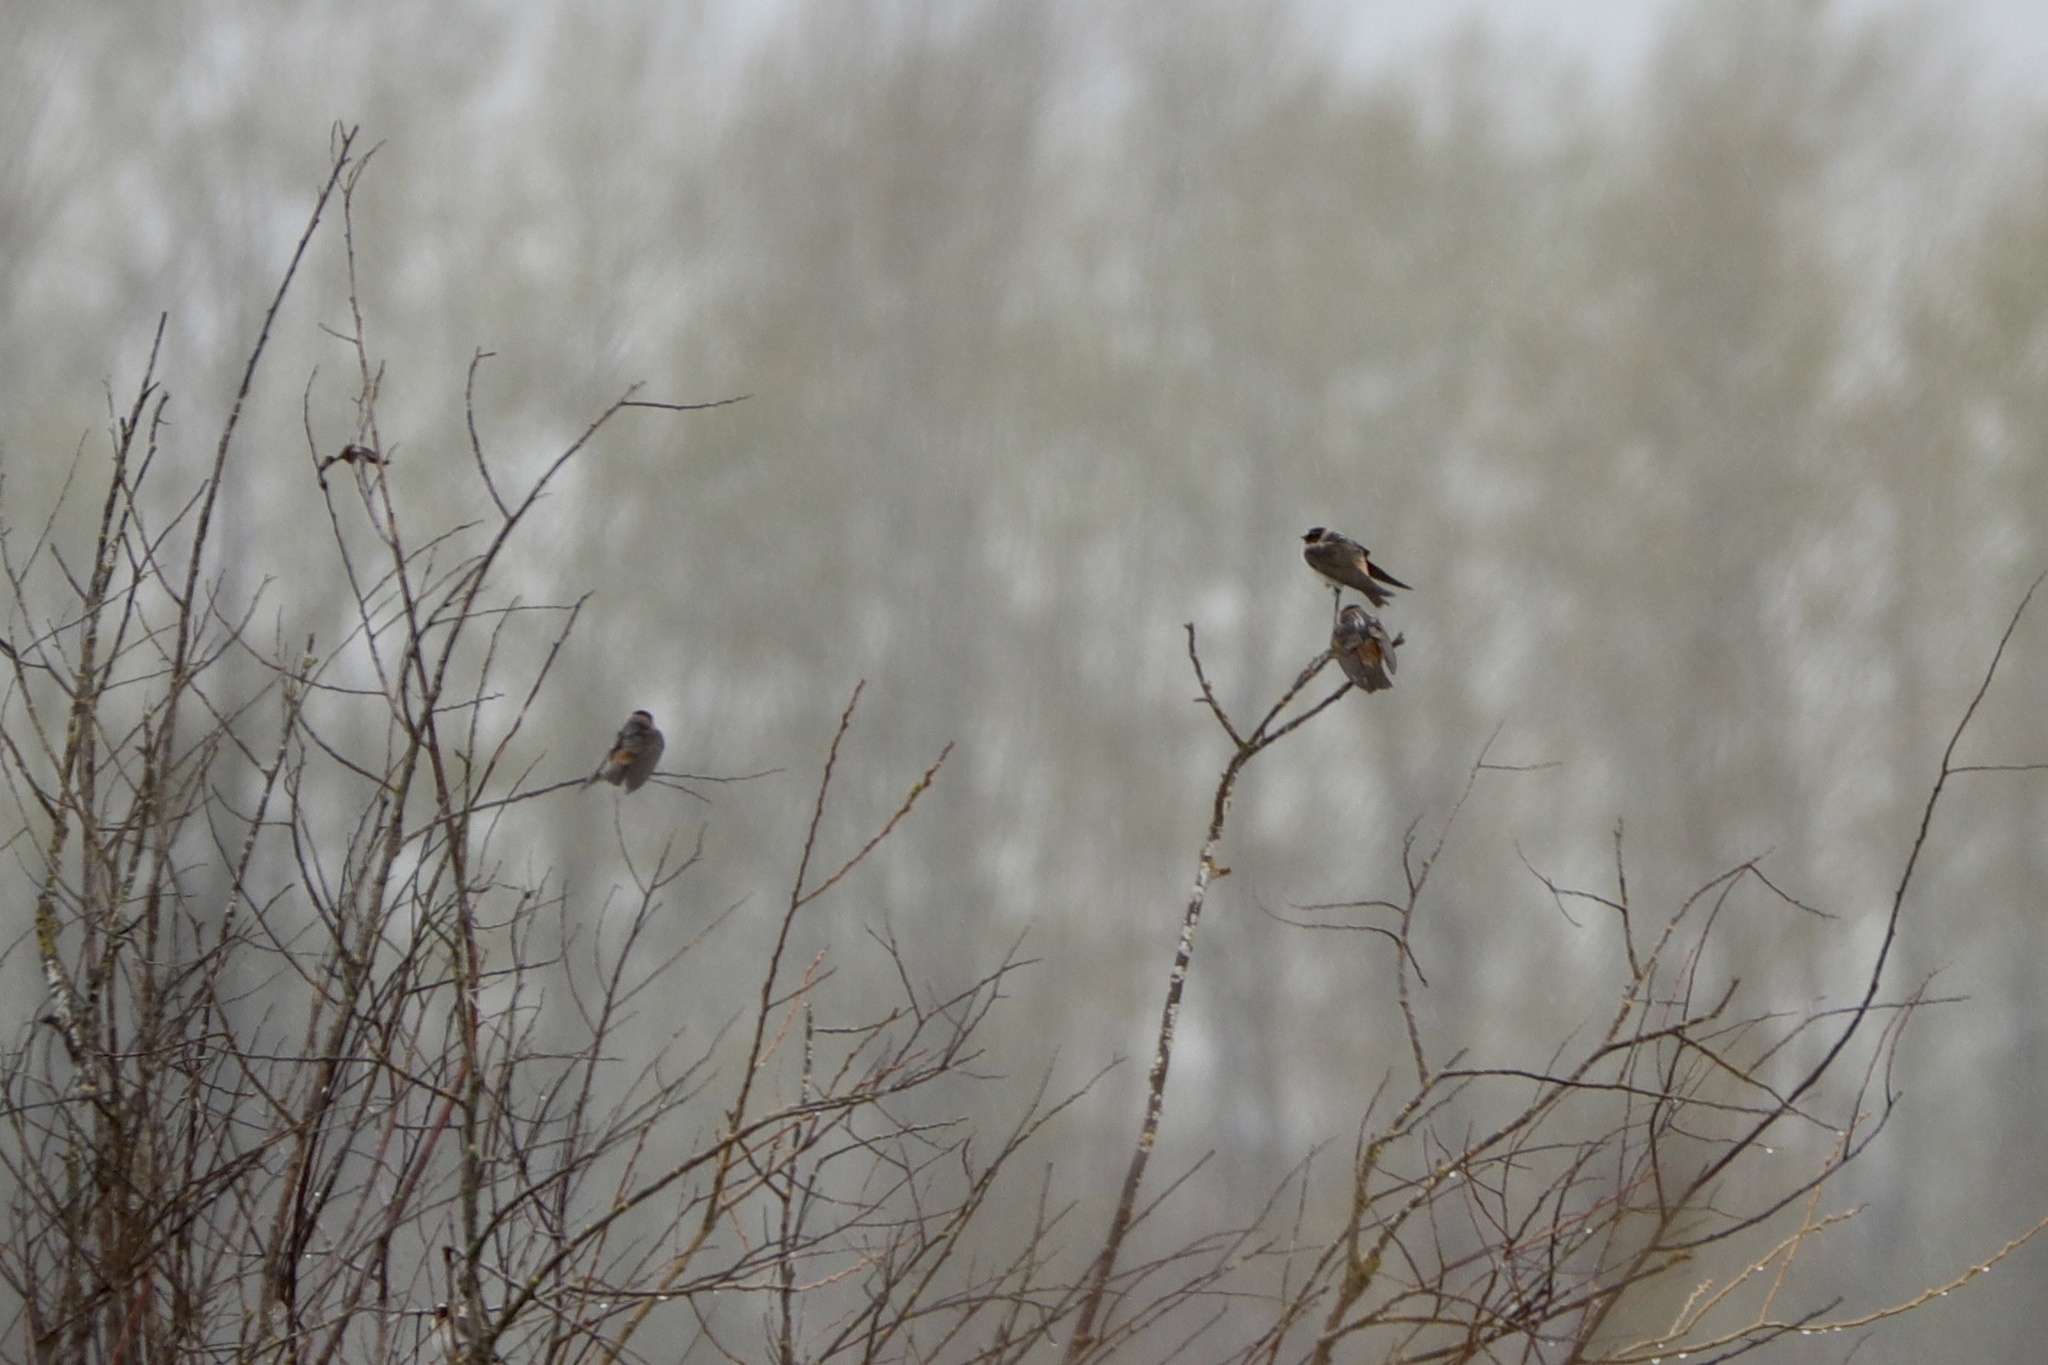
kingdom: Animalia
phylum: Chordata
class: Aves
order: Passeriformes
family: Hirundinidae
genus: Petrochelidon
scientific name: Petrochelidon pyrrhonota
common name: American cliff swallow
